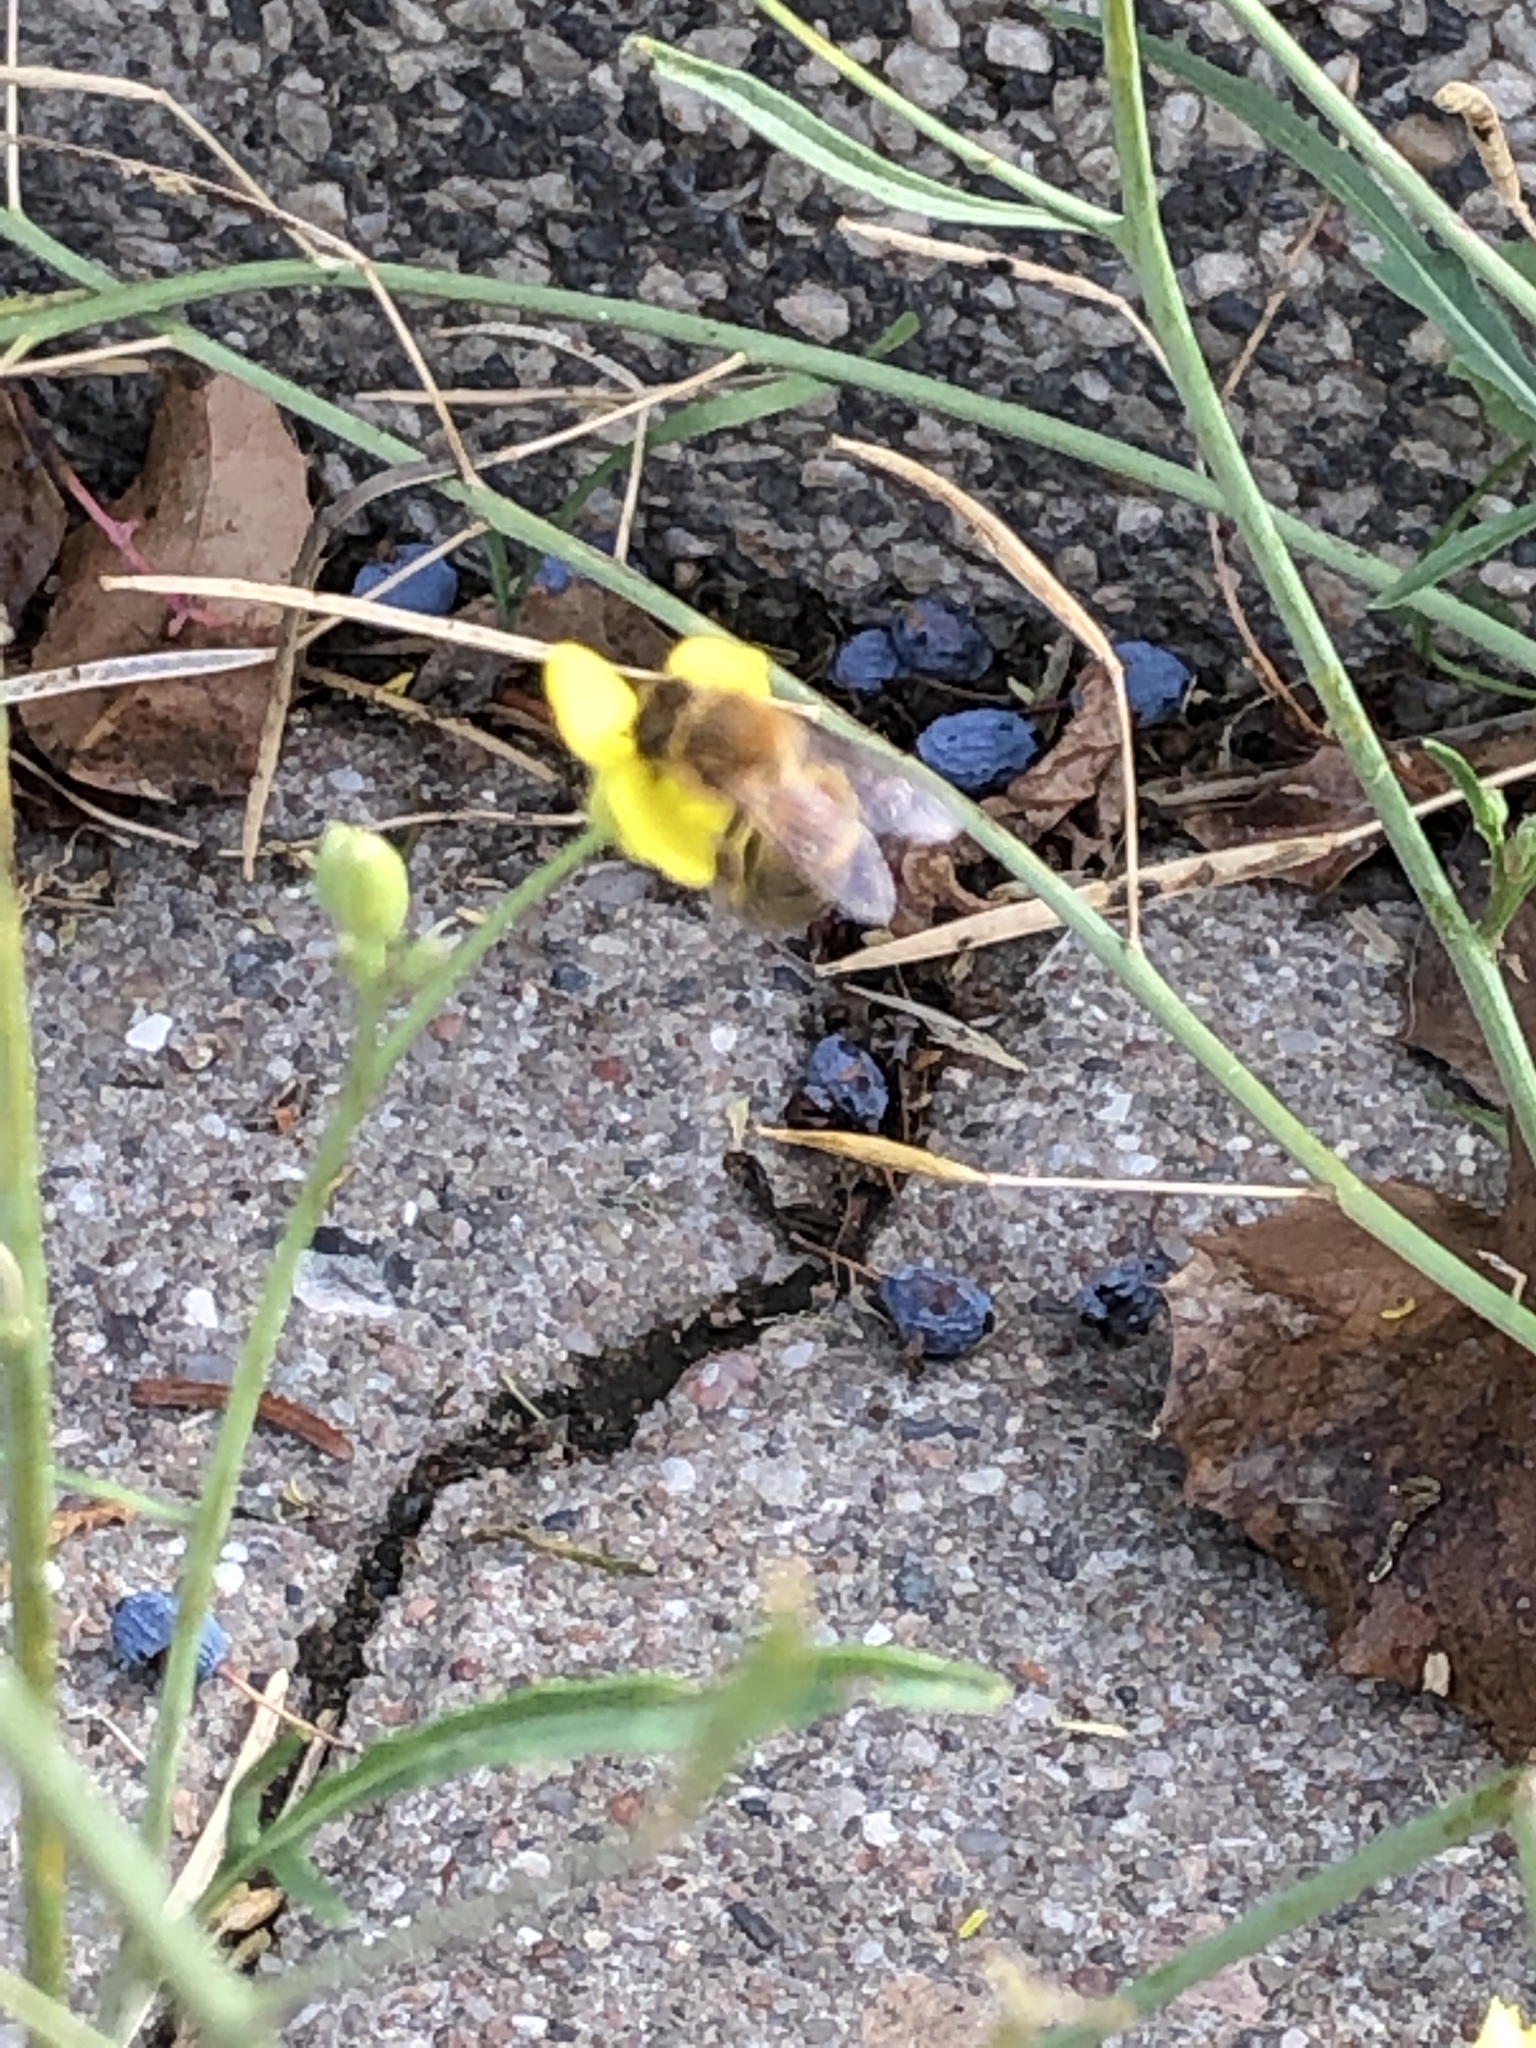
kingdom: Animalia
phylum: Arthropoda
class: Insecta
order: Hymenoptera
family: Apidae
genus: Apis
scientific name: Apis mellifera
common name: Honey bee
